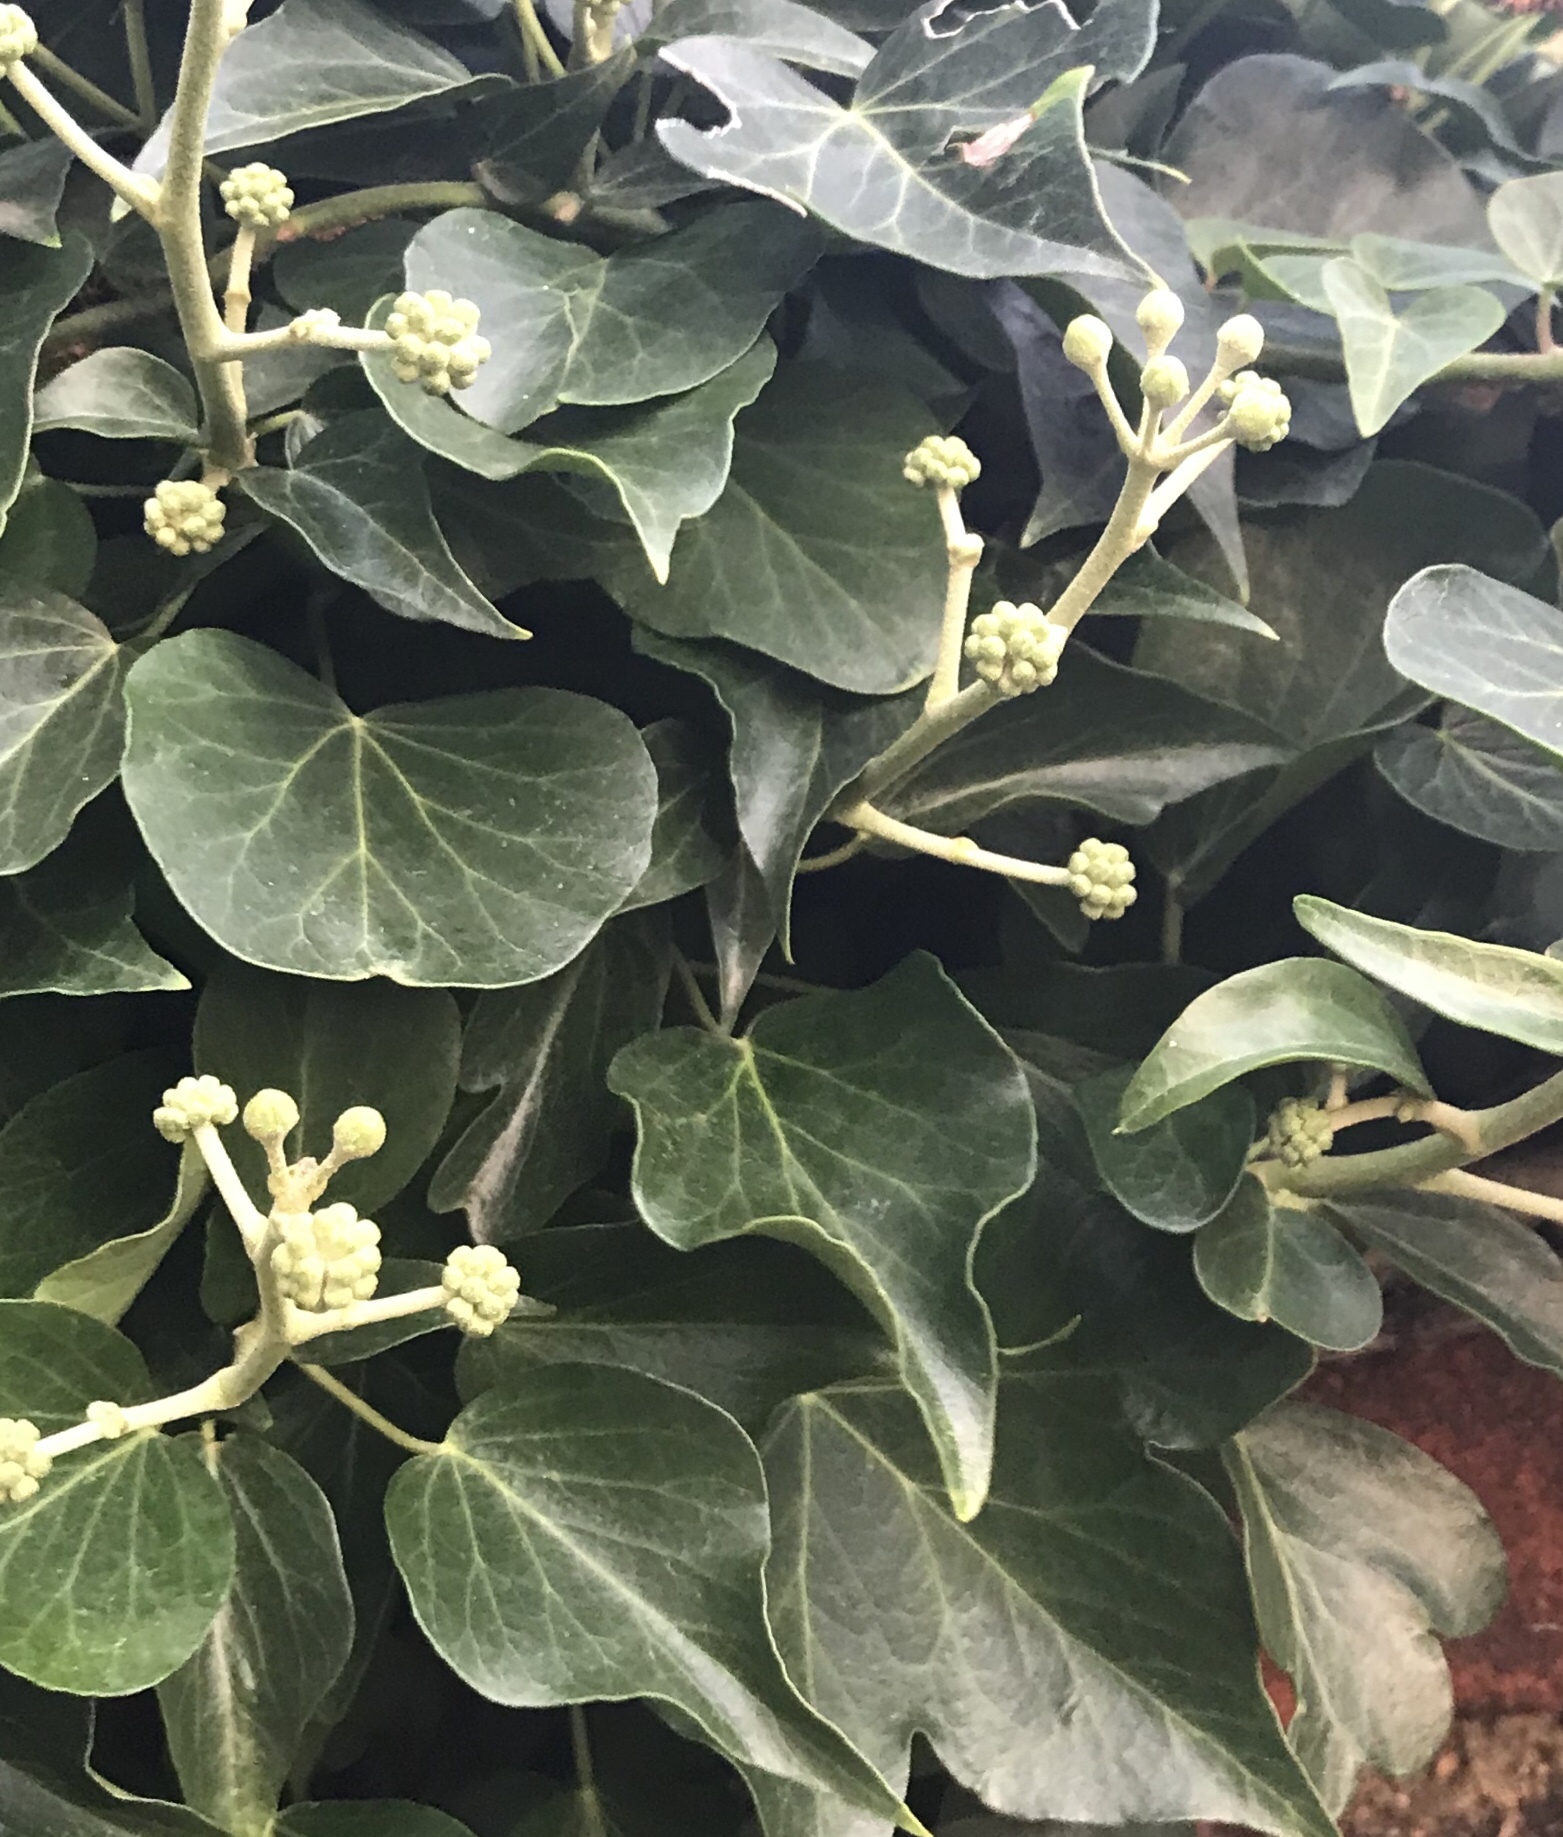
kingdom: Plantae
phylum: Tracheophyta
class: Magnoliopsida
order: Apiales
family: Araliaceae
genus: Hedera
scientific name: Hedera helix
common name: Ivy
